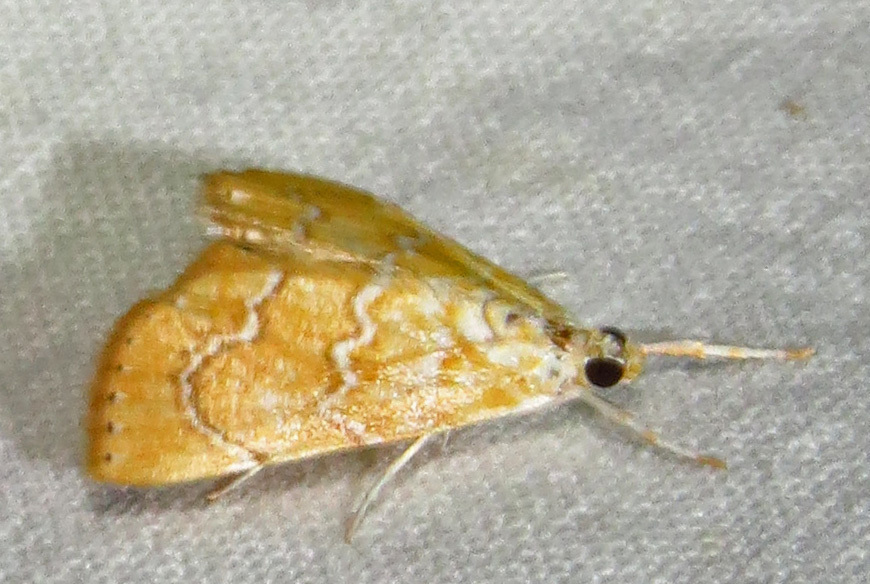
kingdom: Animalia
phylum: Arthropoda
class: Insecta
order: Lepidoptera
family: Crambidae
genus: Glaphyria
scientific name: Glaphyria sesquistrialis
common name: White-roped glaphyria
